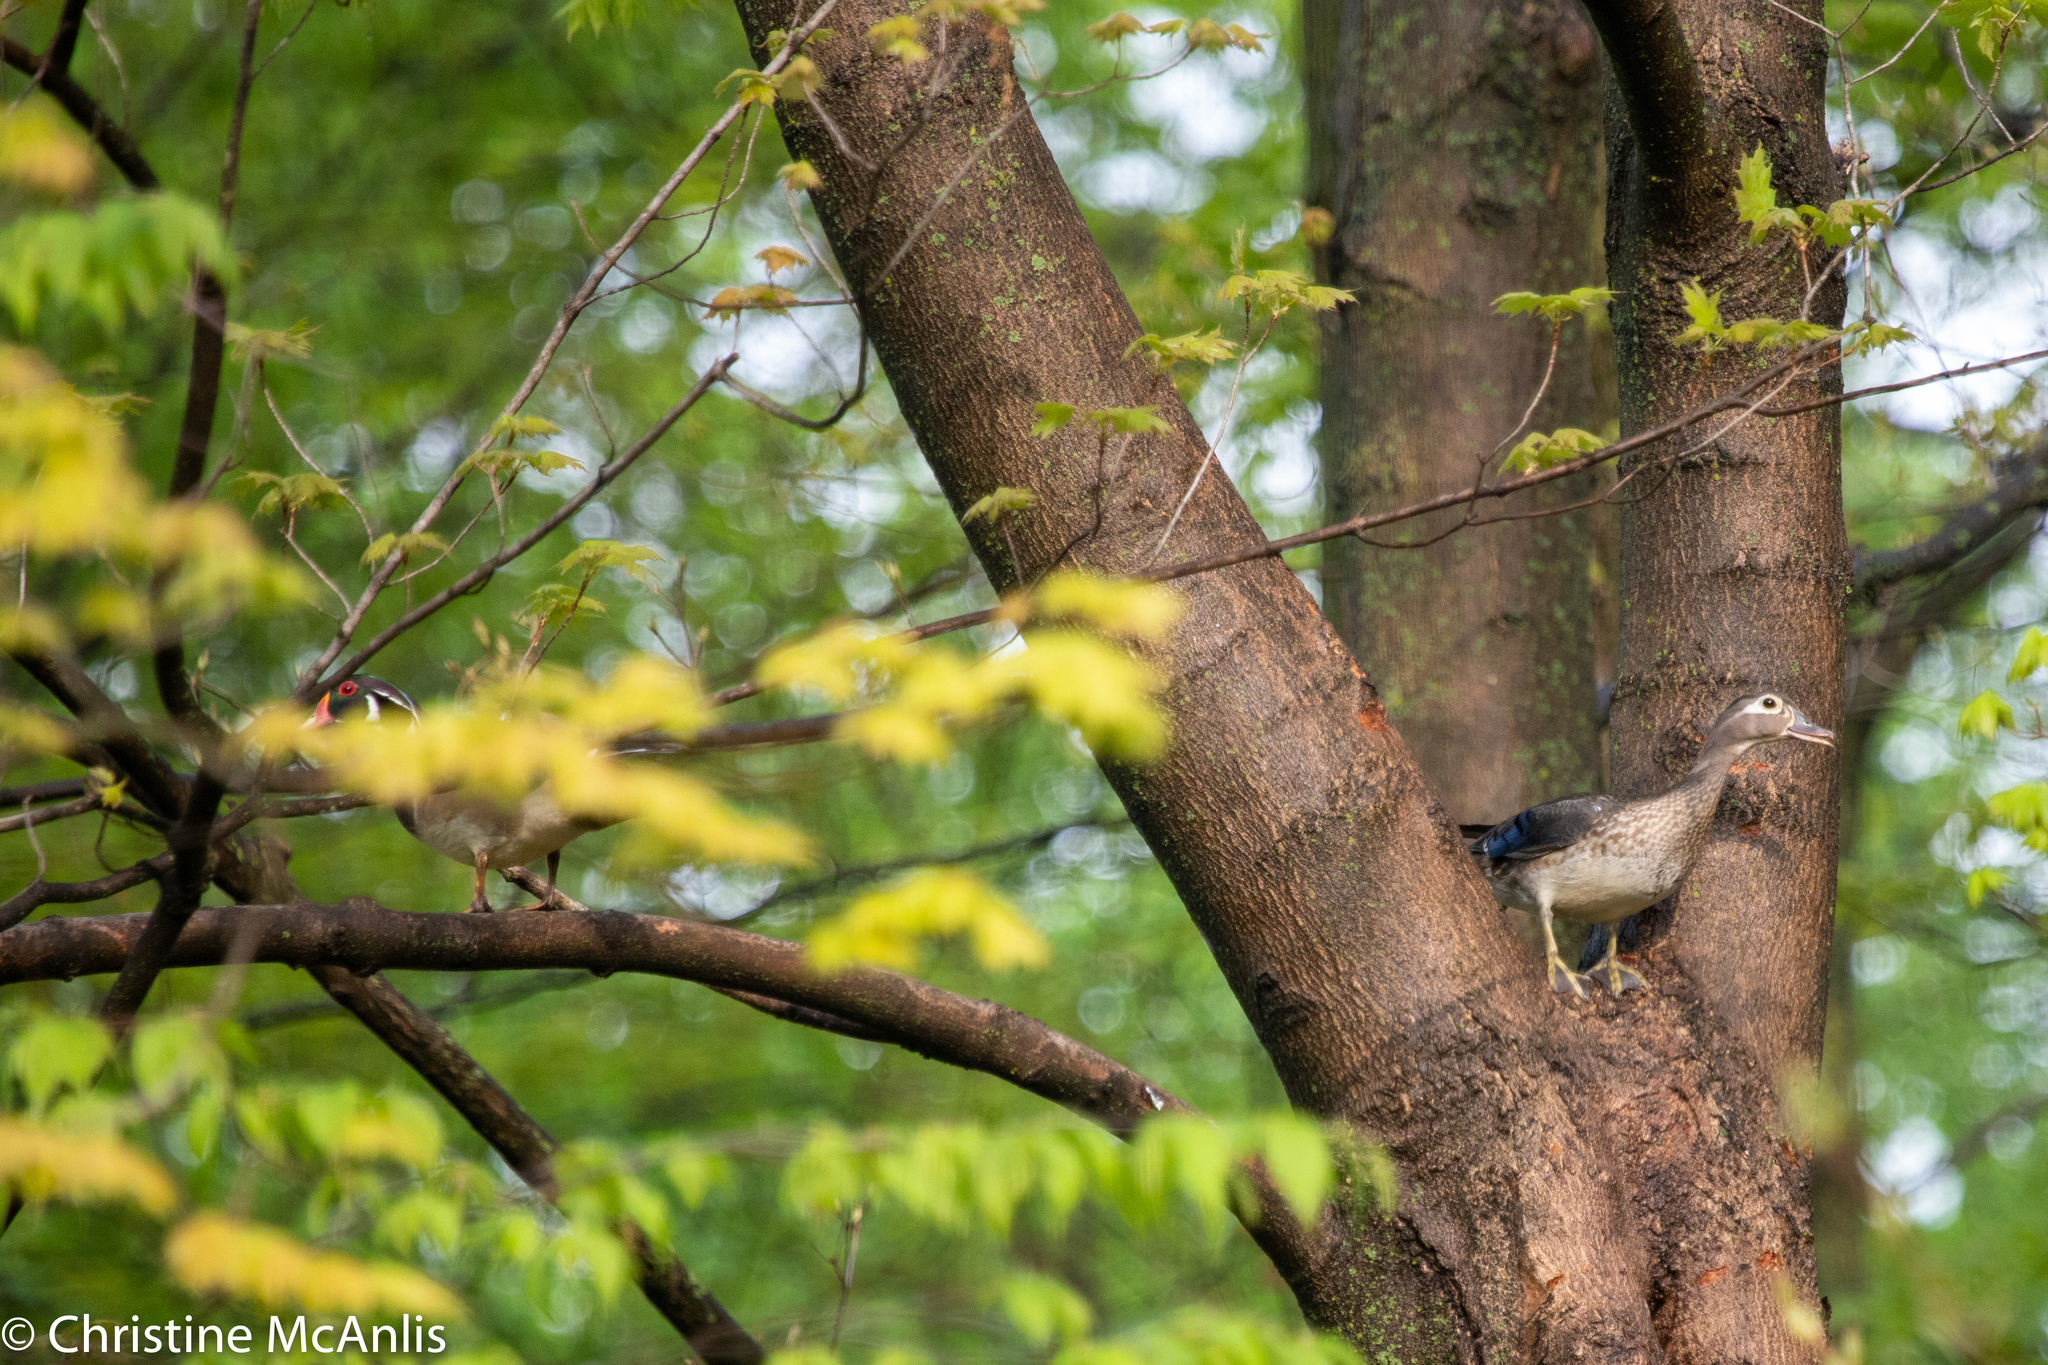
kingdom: Animalia
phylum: Chordata
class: Aves
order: Anseriformes
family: Anatidae
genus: Aix
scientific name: Aix sponsa
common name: Wood duck
